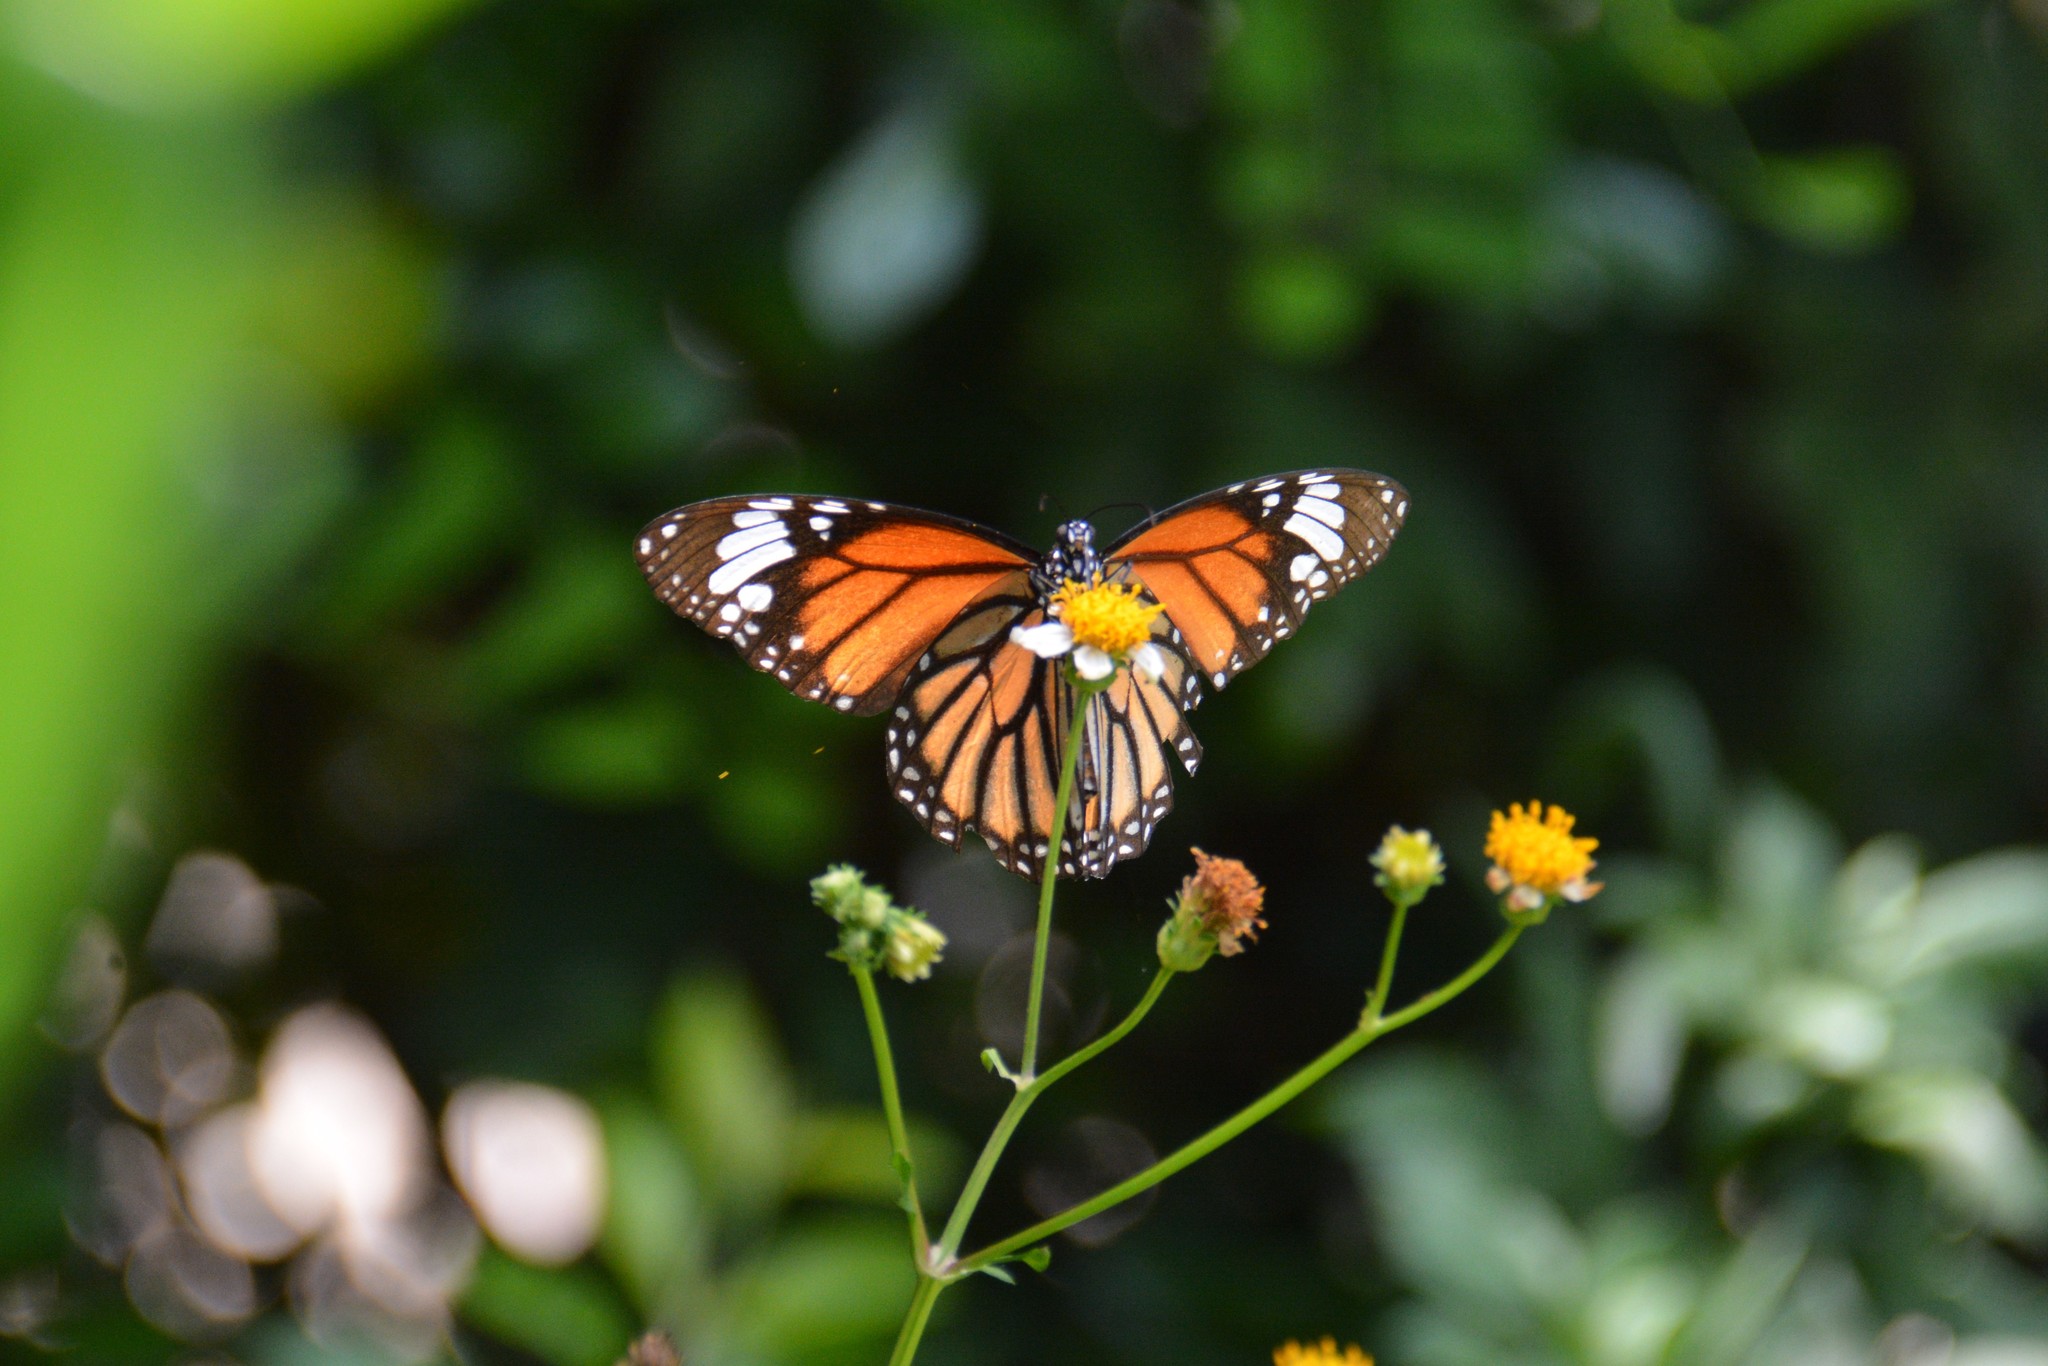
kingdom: Animalia
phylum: Arthropoda
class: Insecta
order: Lepidoptera
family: Nymphalidae
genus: Danaus
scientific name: Danaus genutia
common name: Common tiger butterfly
